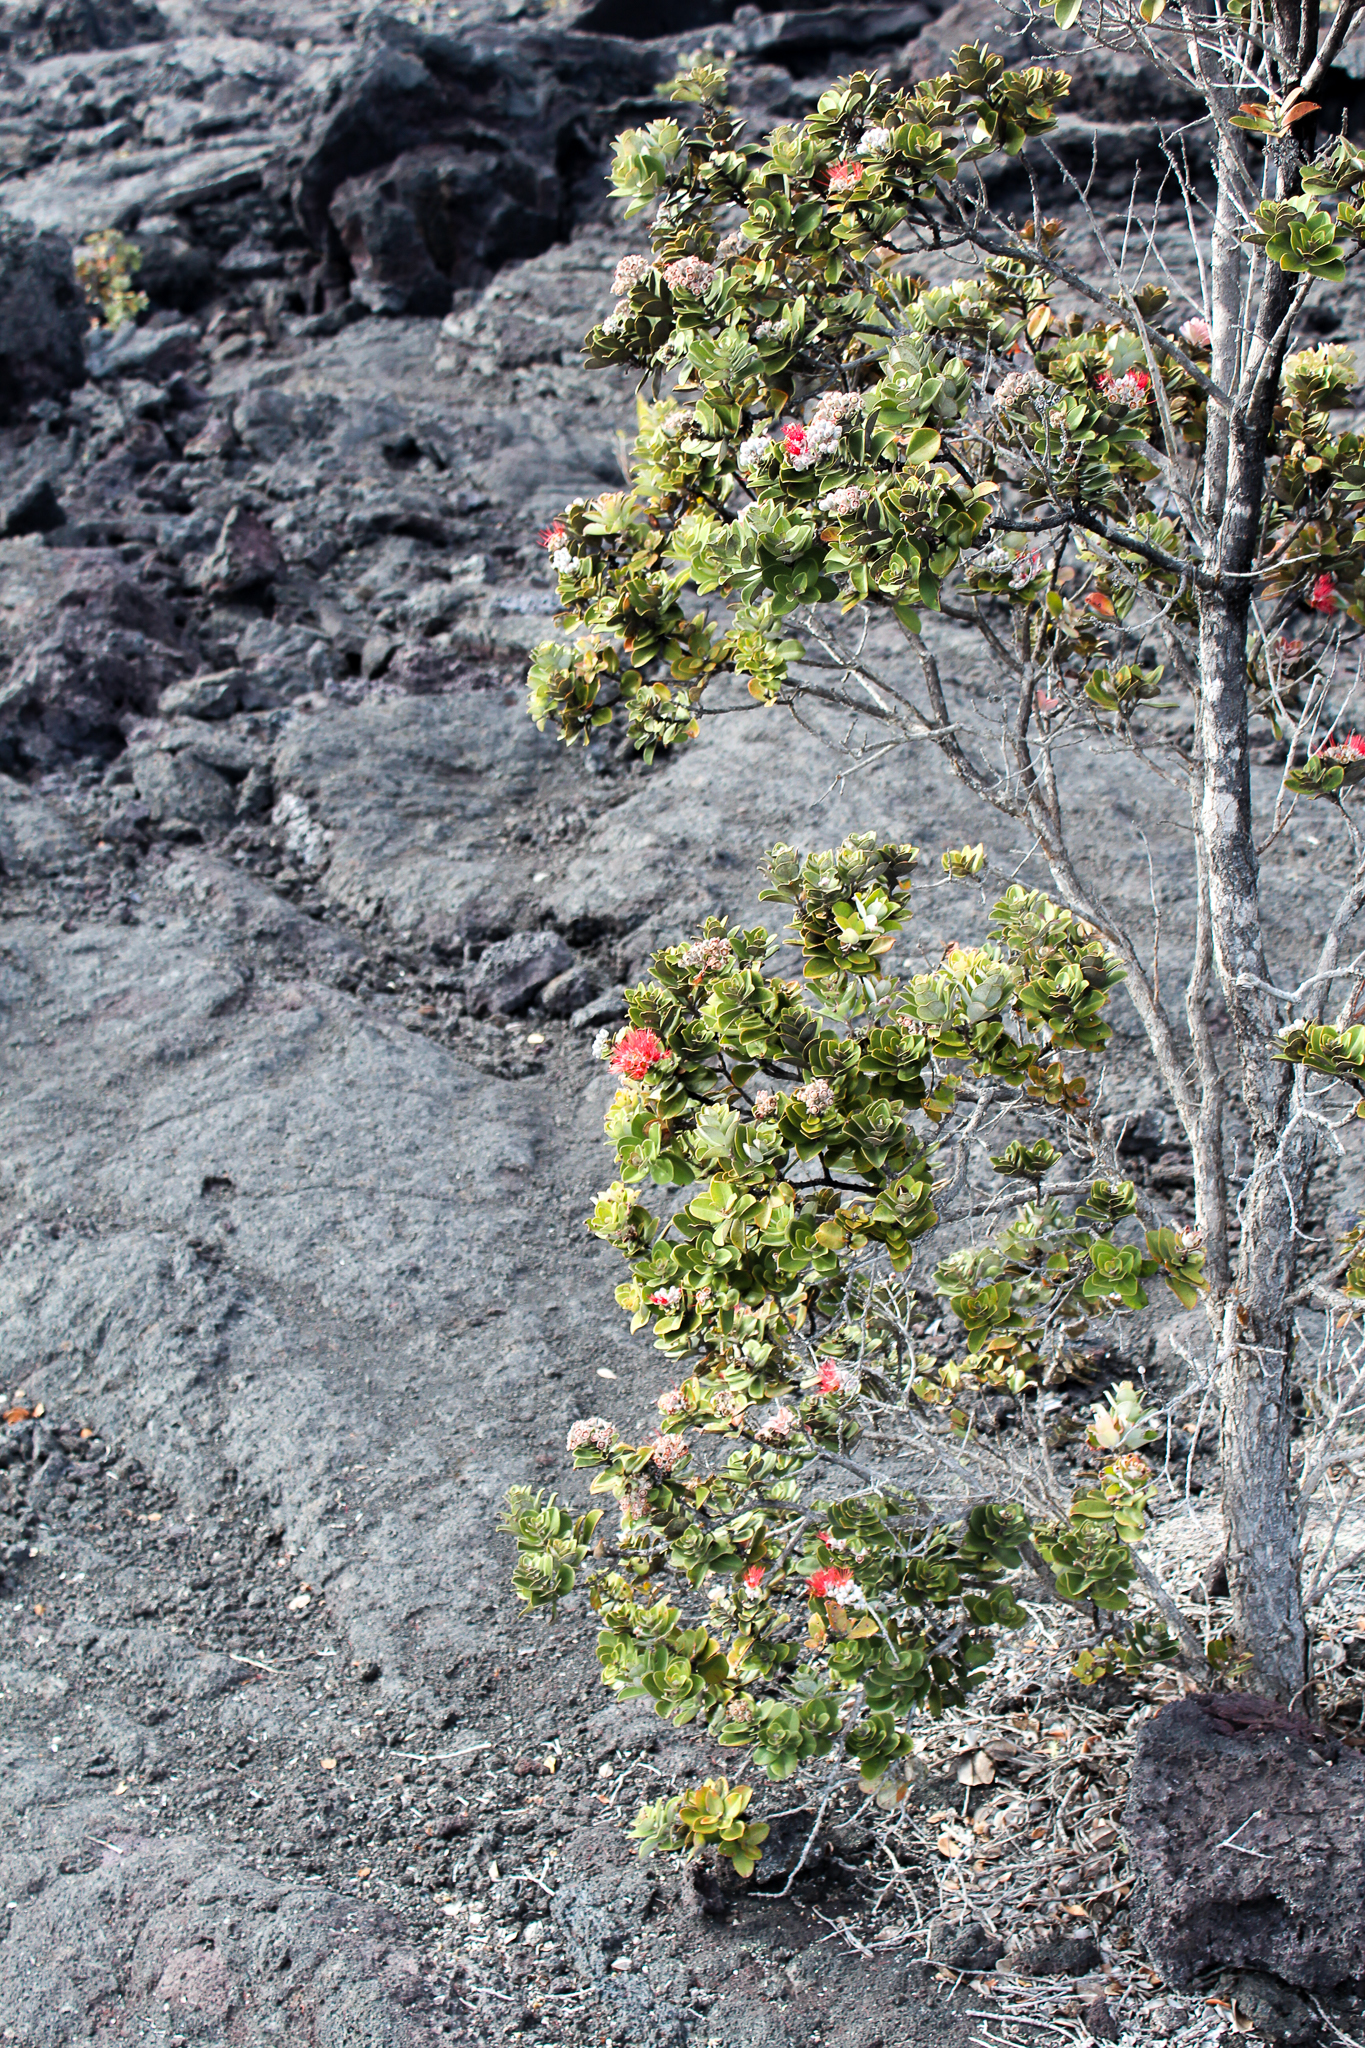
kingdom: Plantae
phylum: Tracheophyta
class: Magnoliopsida
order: Myrtales
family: Myrtaceae
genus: Metrosideros
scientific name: Metrosideros polymorpha
